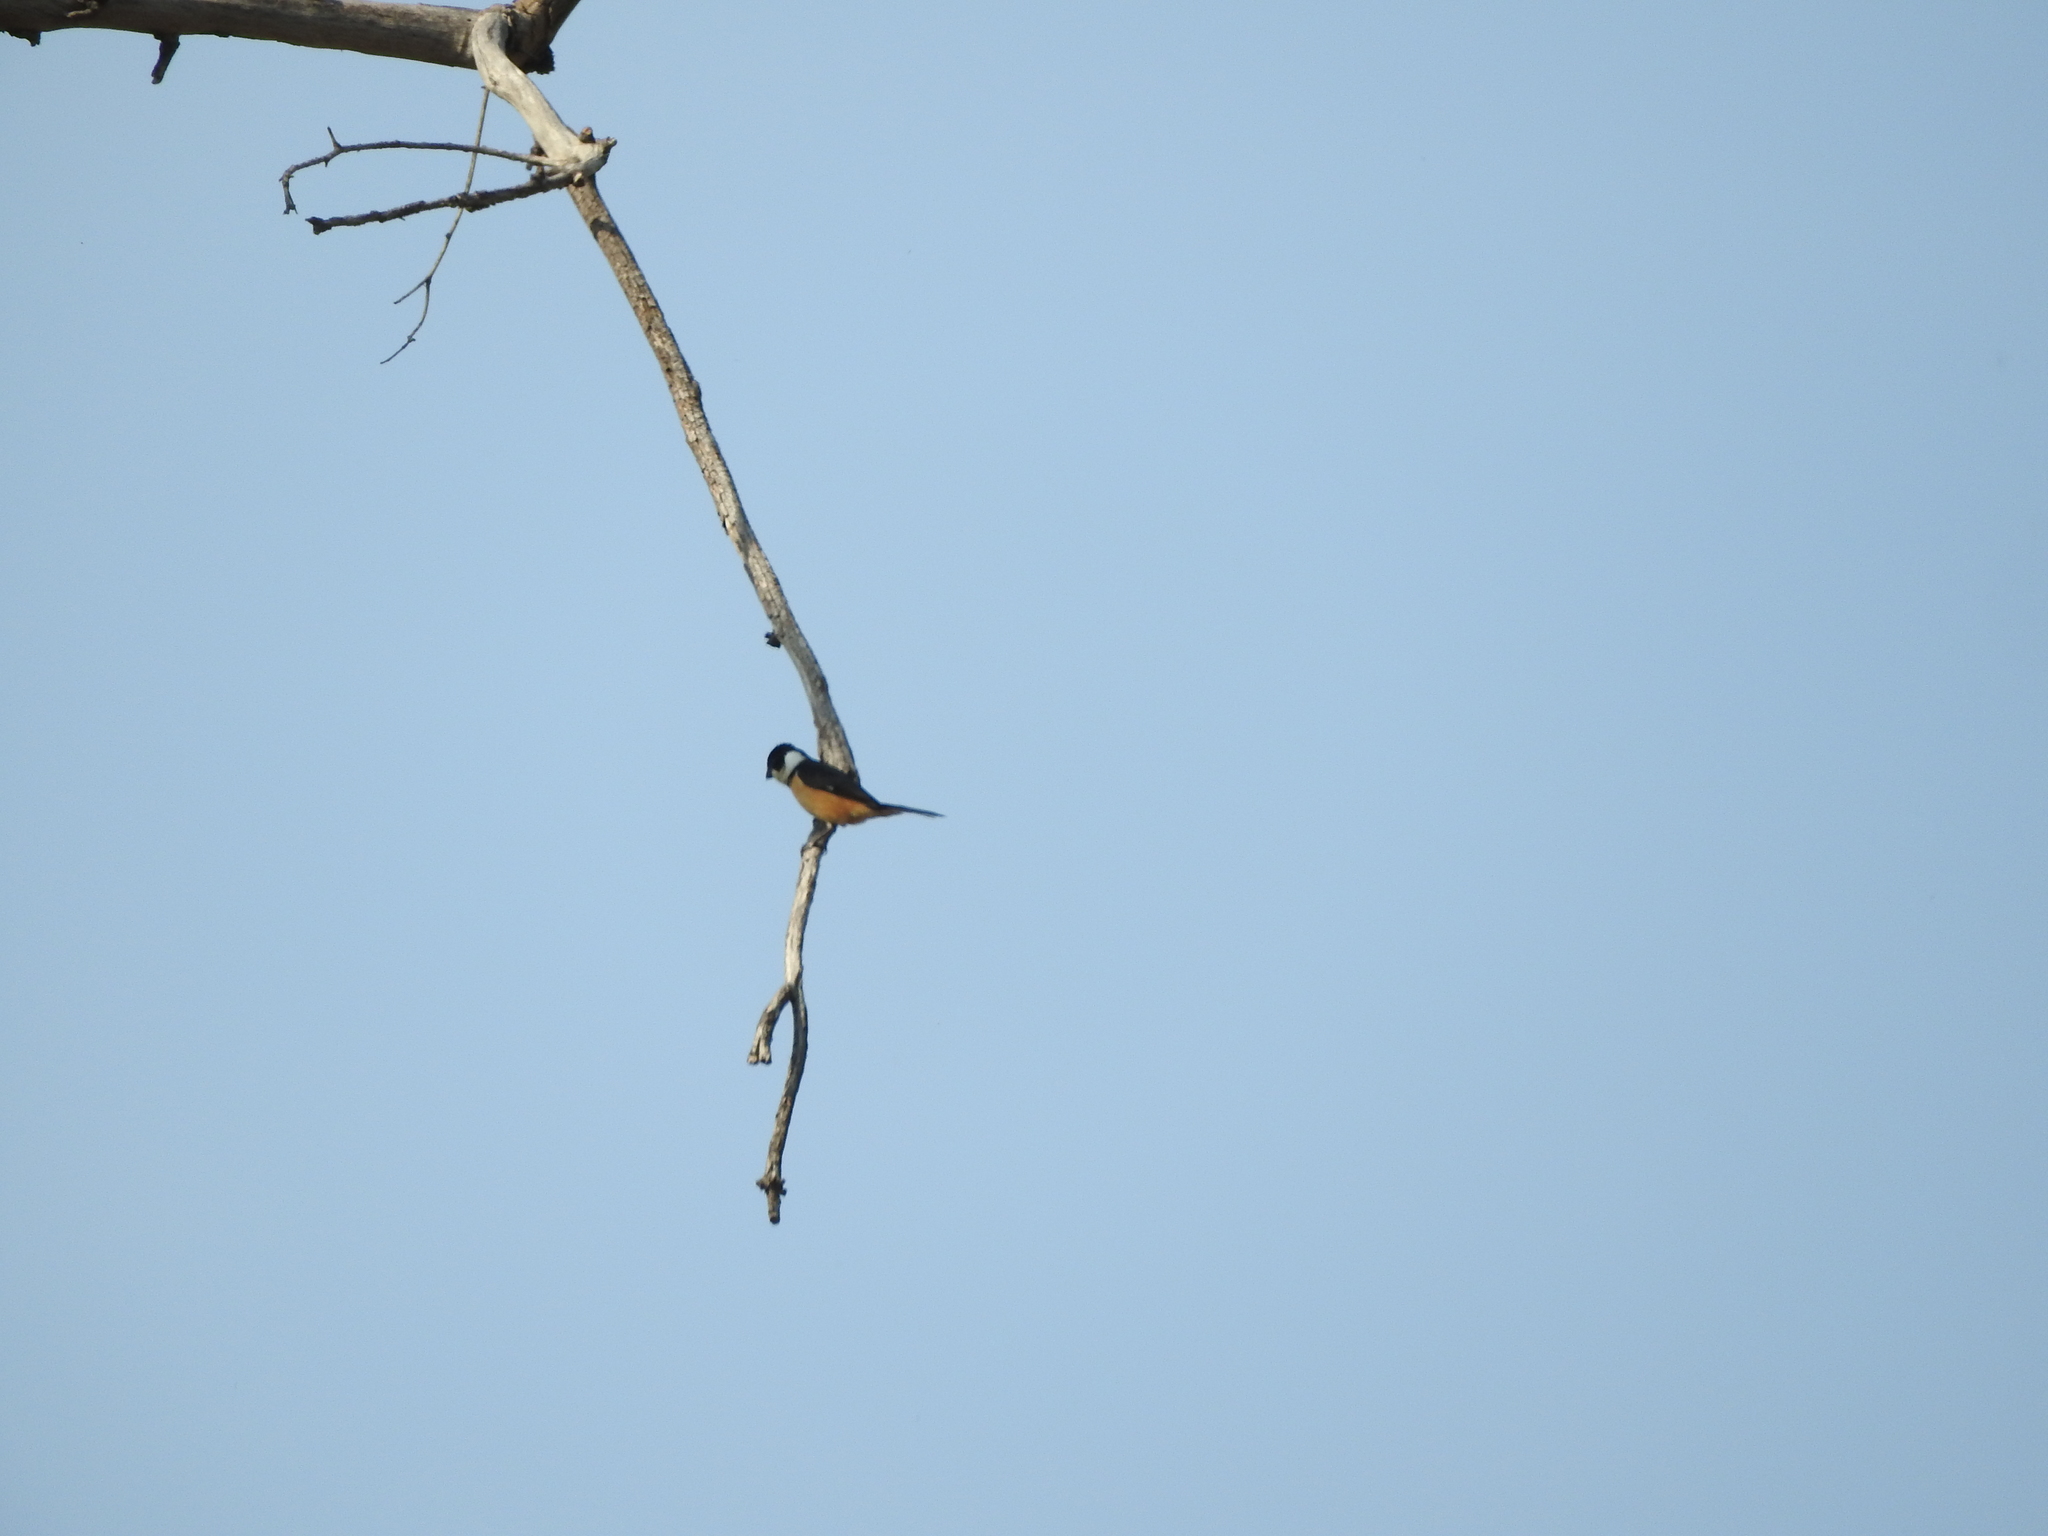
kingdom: Animalia
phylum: Chordata
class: Aves
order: Passeriformes
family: Thraupidae
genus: Sporophila
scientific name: Sporophila torqueola
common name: White-collared seedeater
